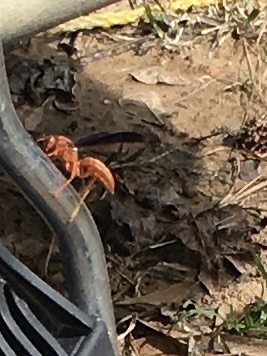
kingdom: Animalia
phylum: Arthropoda
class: Insecta
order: Hymenoptera
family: Eumenidae
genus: Polistes
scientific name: Polistes carolina
